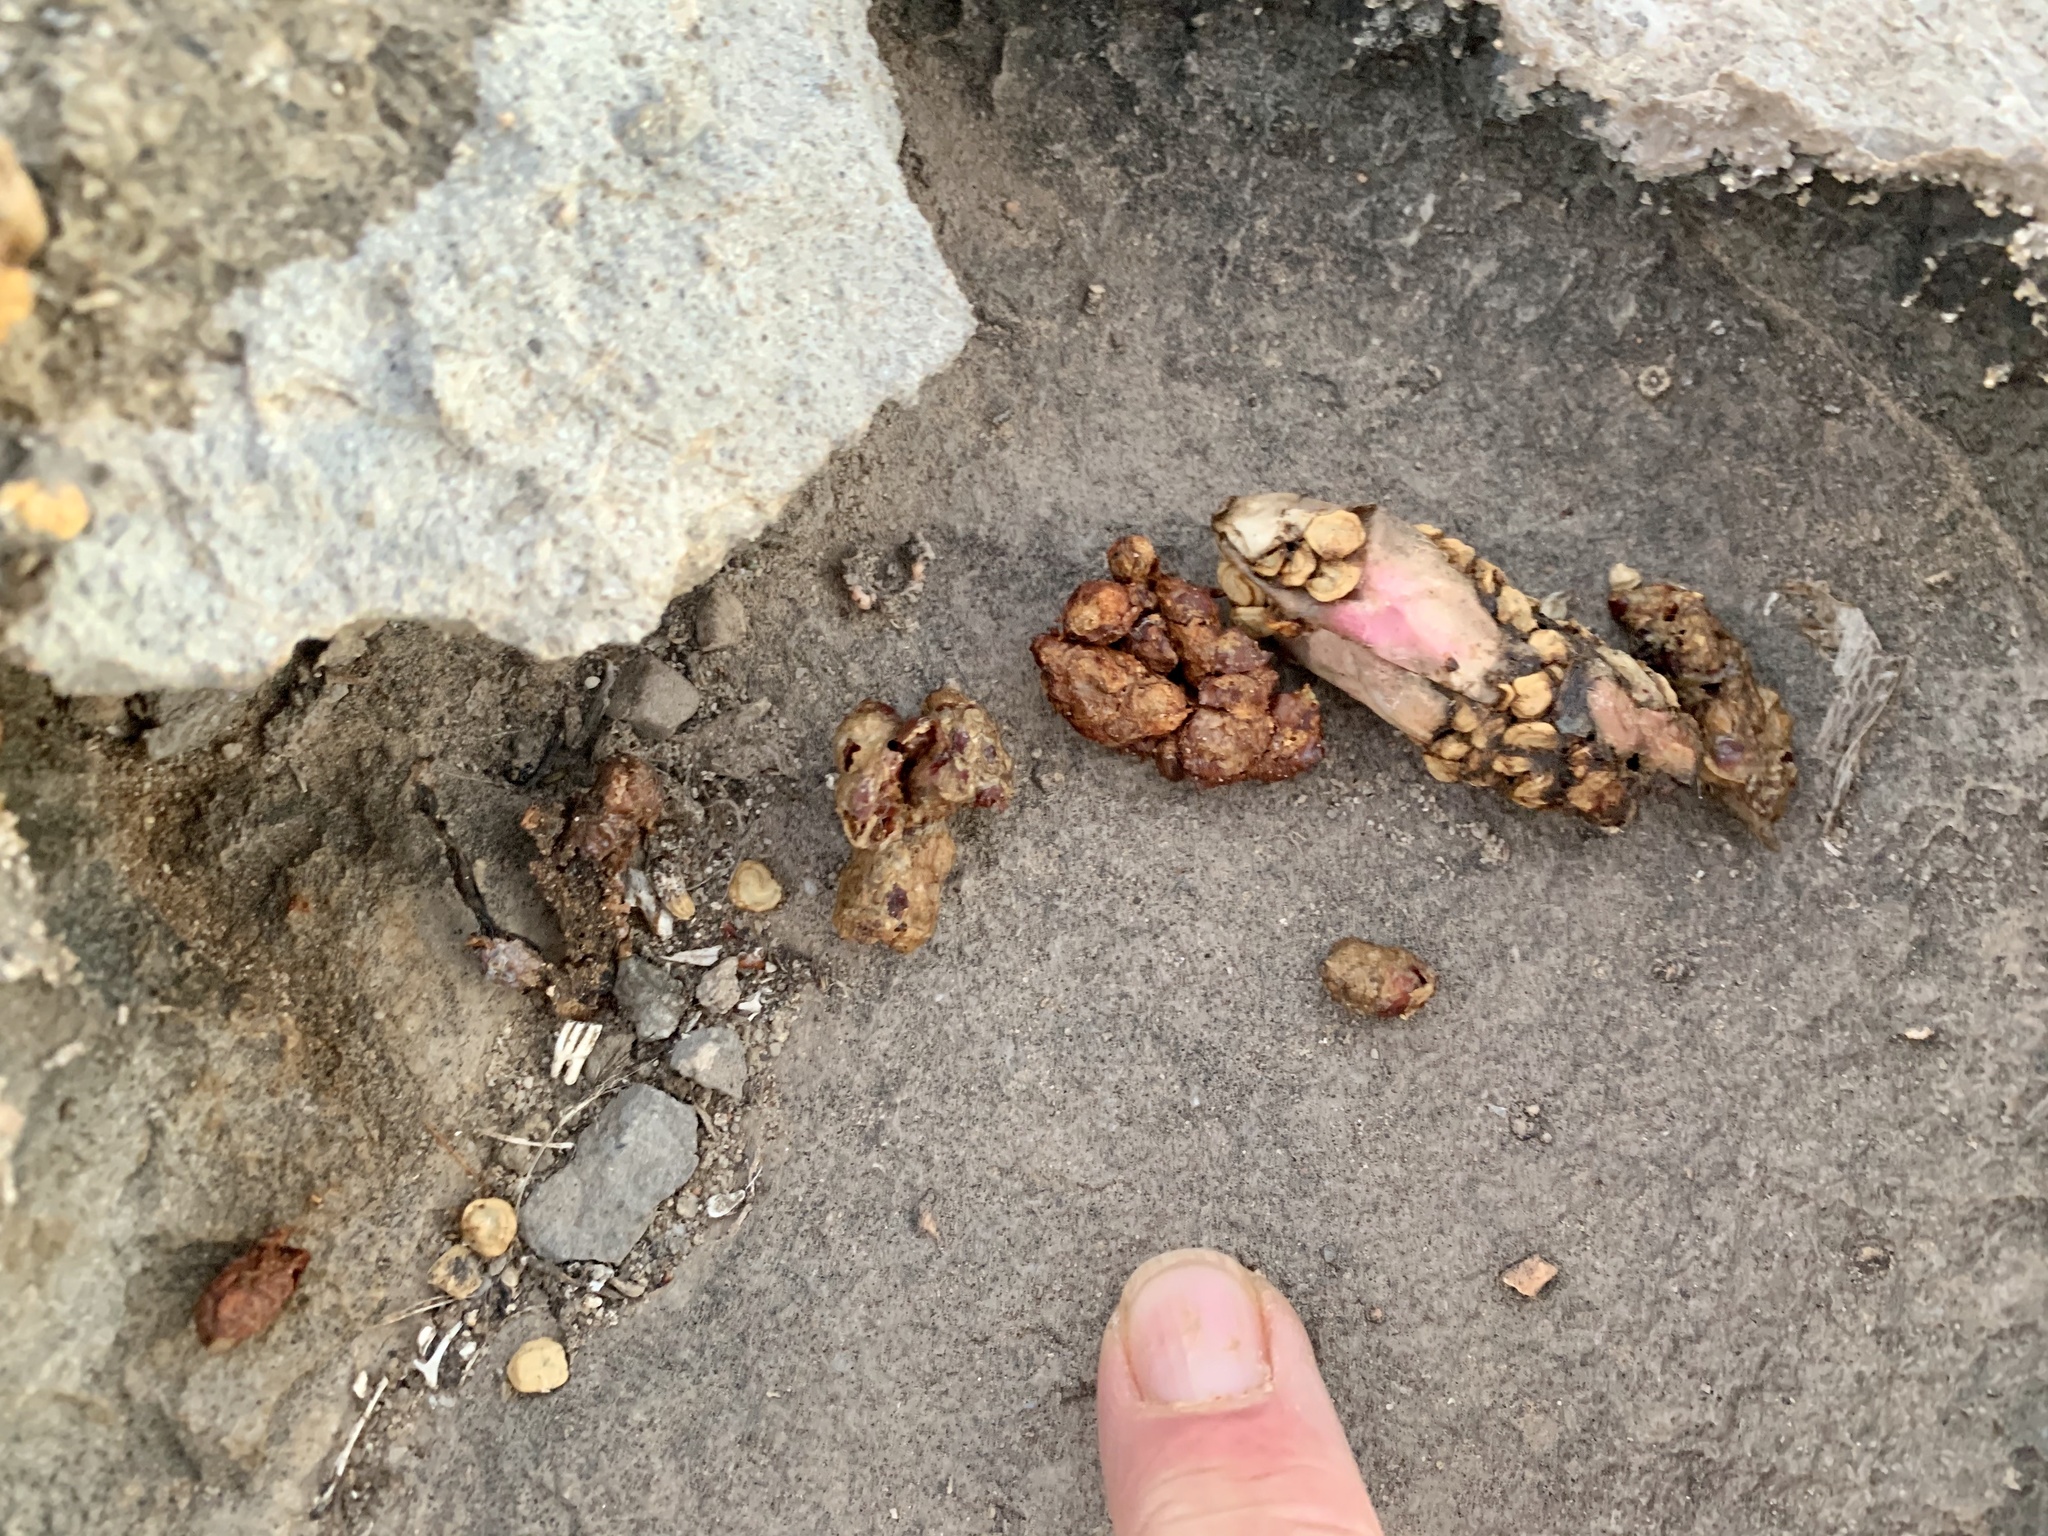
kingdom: Animalia
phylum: Chordata
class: Mammalia
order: Carnivora
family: Procyonidae
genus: Bassariscus
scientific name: Bassariscus astutus
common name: Ringtail
